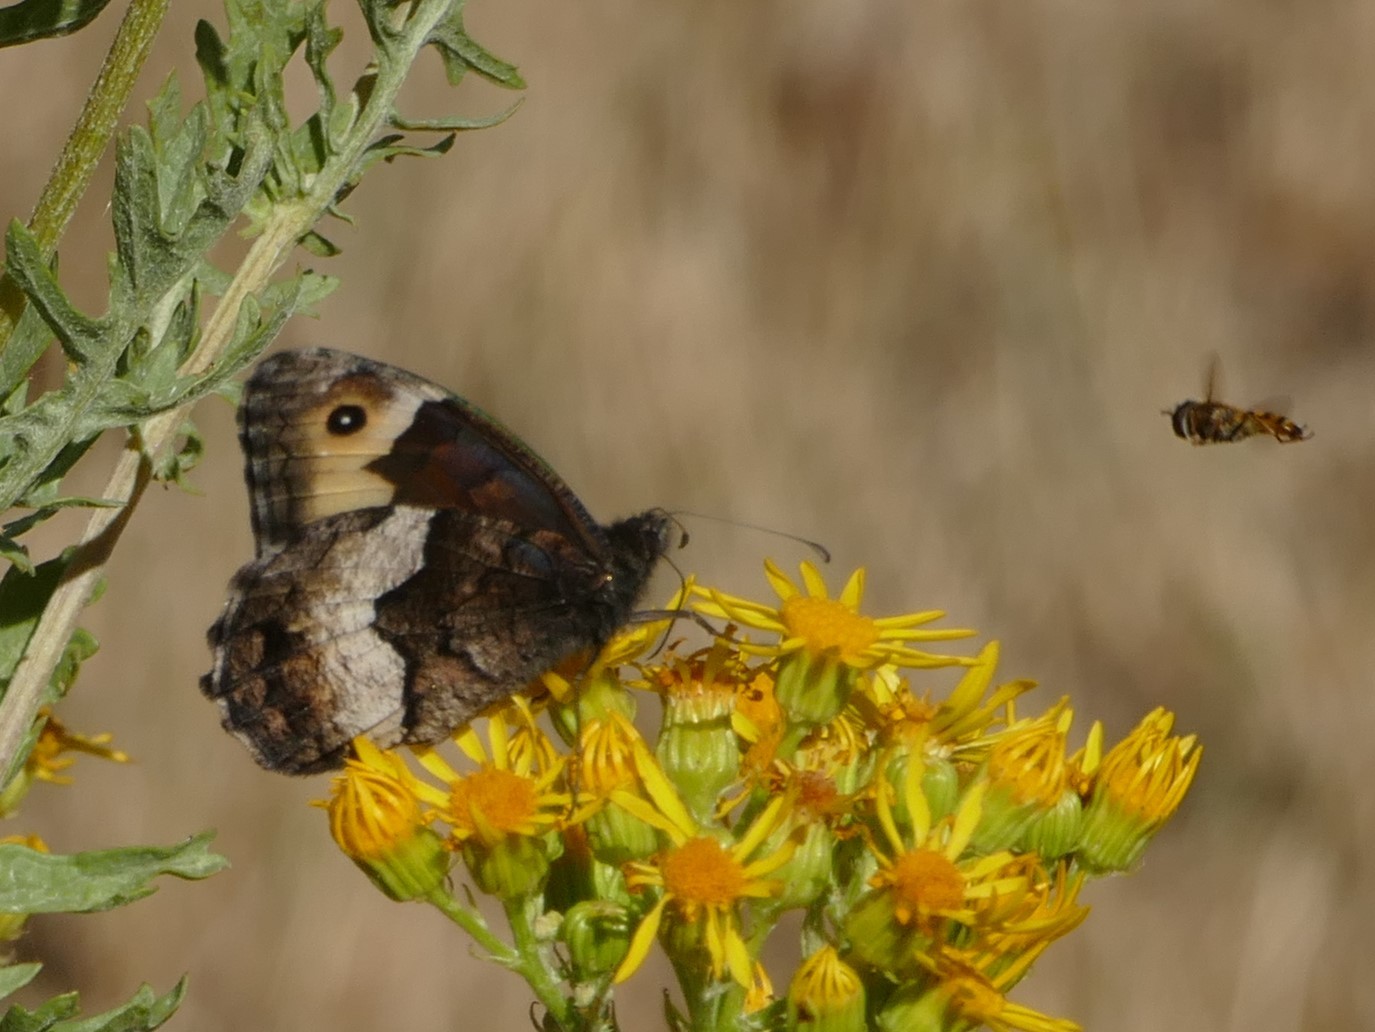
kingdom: Animalia
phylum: Arthropoda
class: Insecta
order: Lepidoptera
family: Nymphalidae
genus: Hipparchia
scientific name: Hipparchia hermione
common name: Rock grayling
